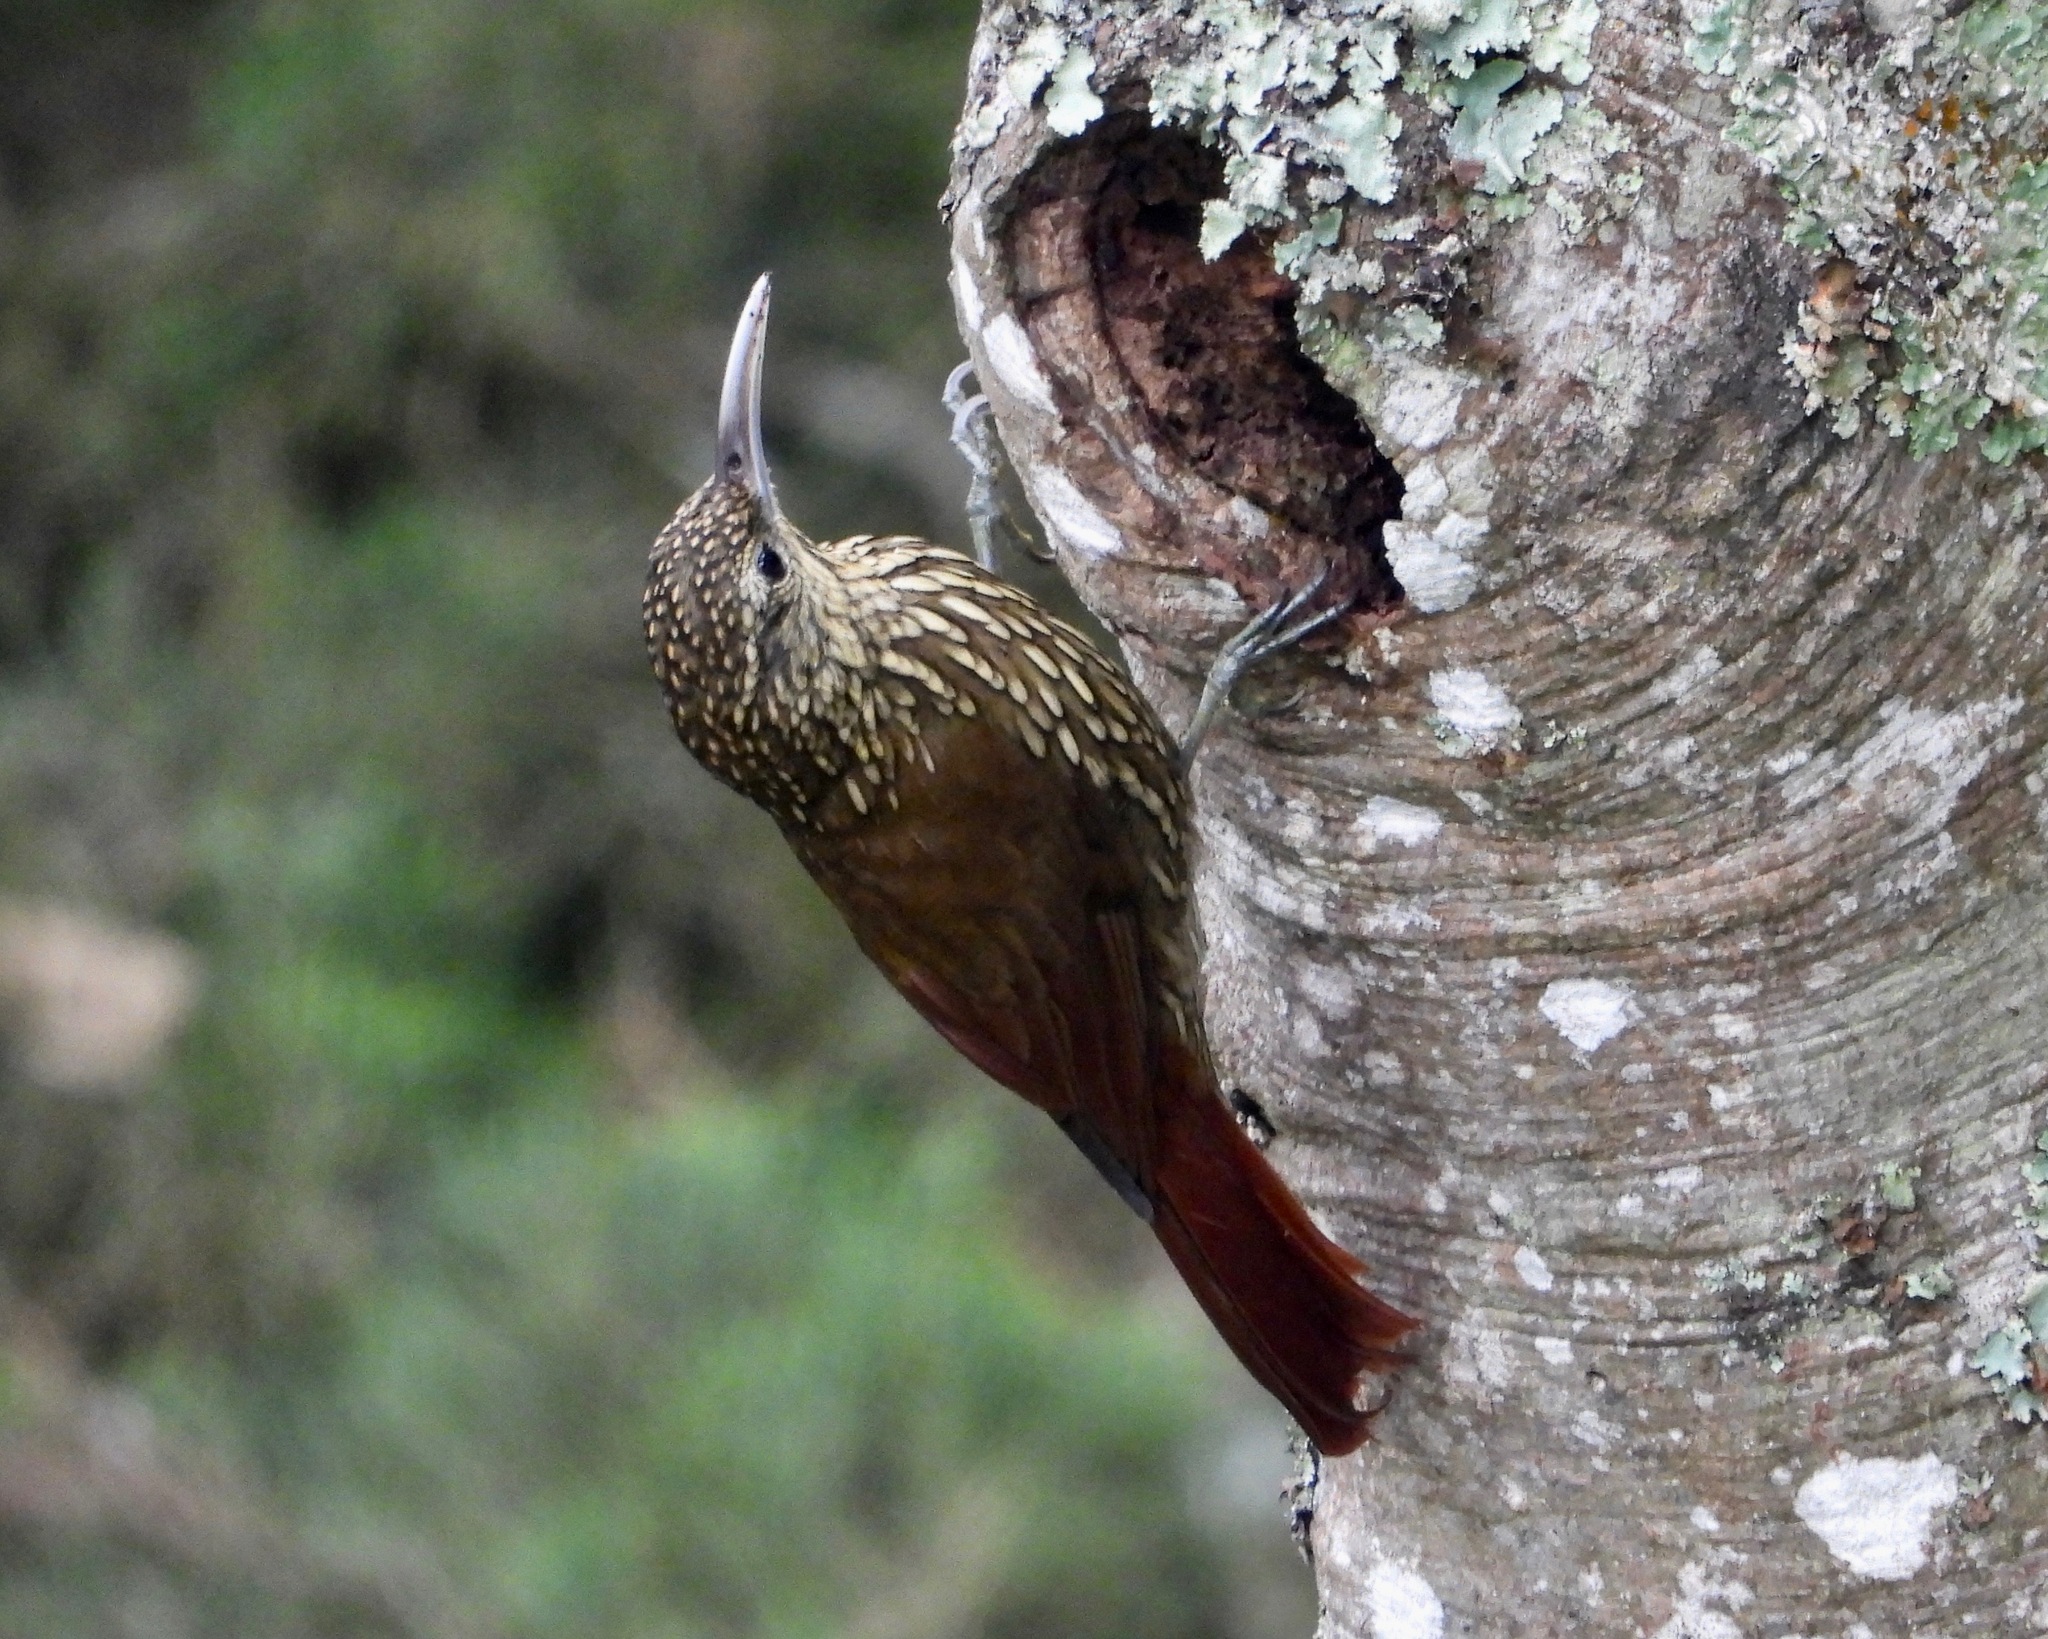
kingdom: Animalia
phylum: Chordata
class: Aves
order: Passeriformes
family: Furnariidae
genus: Lepidocolaptes
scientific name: Lepidocolaptes affinis
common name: Spot-crowned woodcreeper
